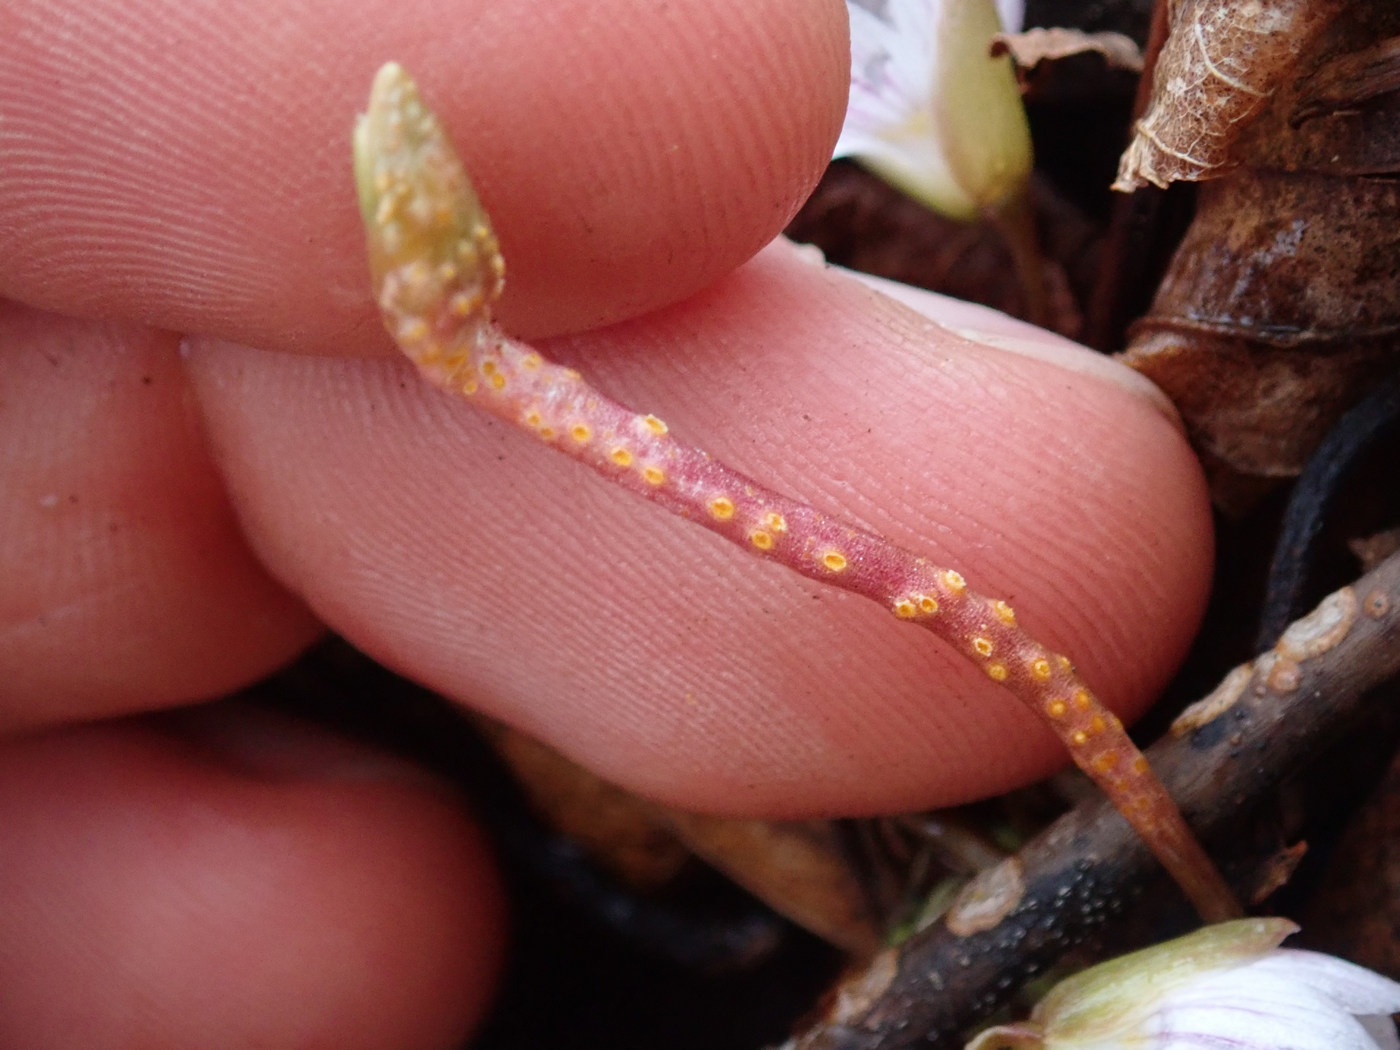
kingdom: Fungi
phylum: Basidiomycota
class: Pucciniomycetes
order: Pucciniales
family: Pucciniaceae
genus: Puccinia
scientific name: Puccinia mariae-wilsoniae
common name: Spring beauty rust
